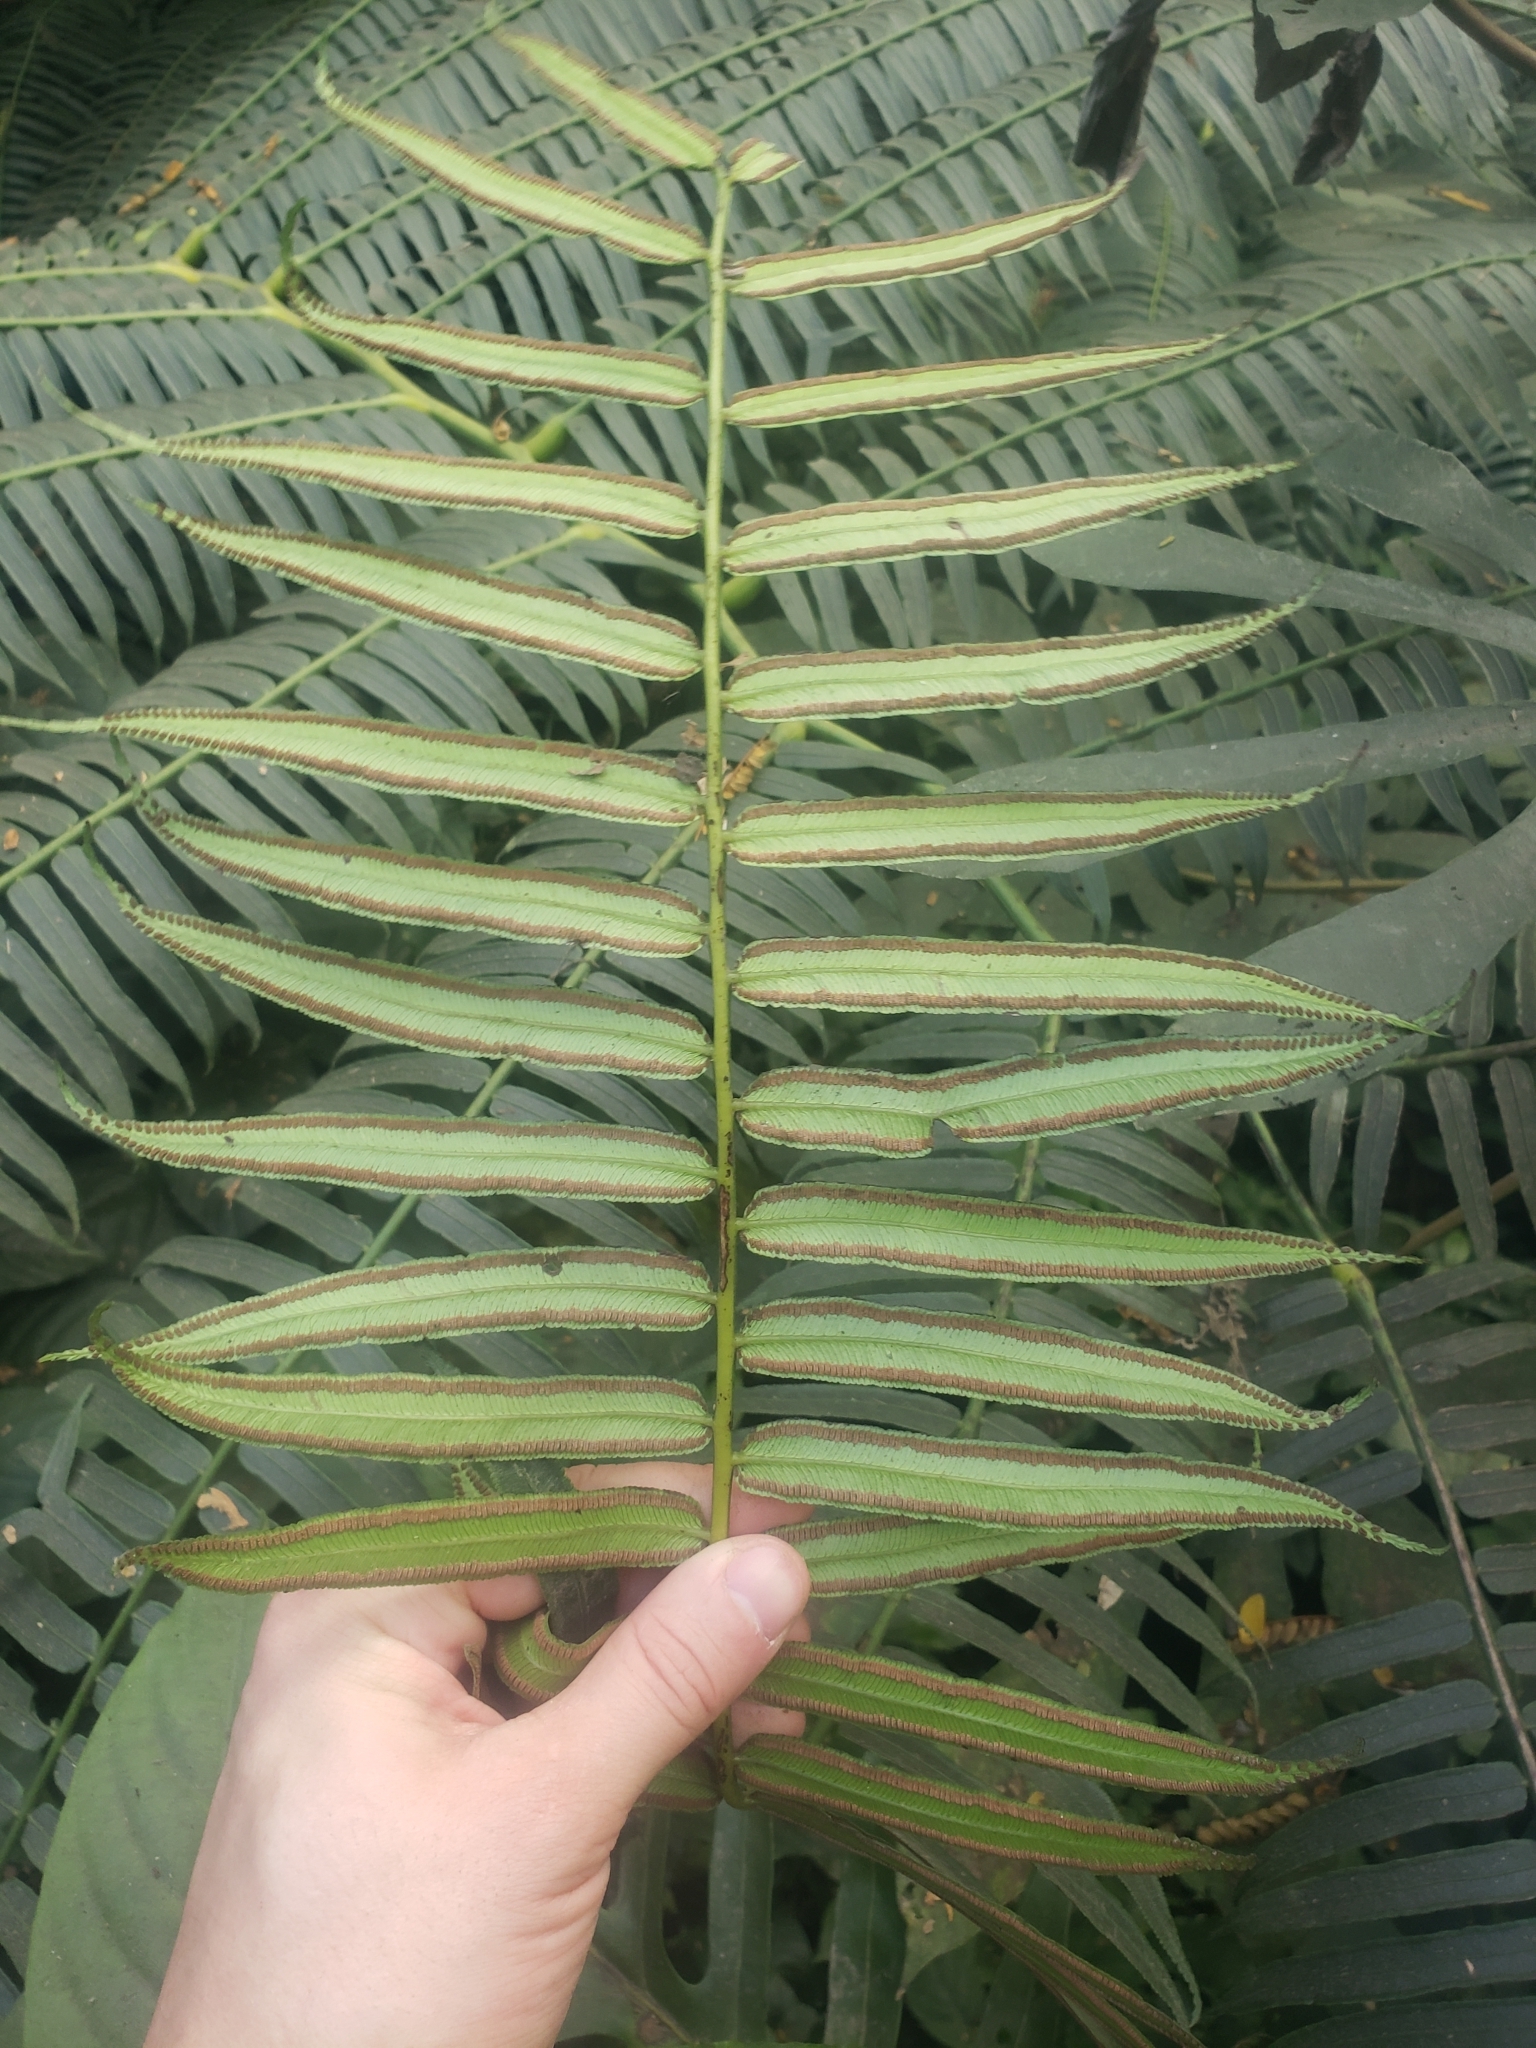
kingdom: Plantae
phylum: Tracheophyta
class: Polypodiopsida
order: Marattiales
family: Marattiaceae
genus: Angiopteris
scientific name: Angiopteris evecta
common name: Mule's-foot fern
